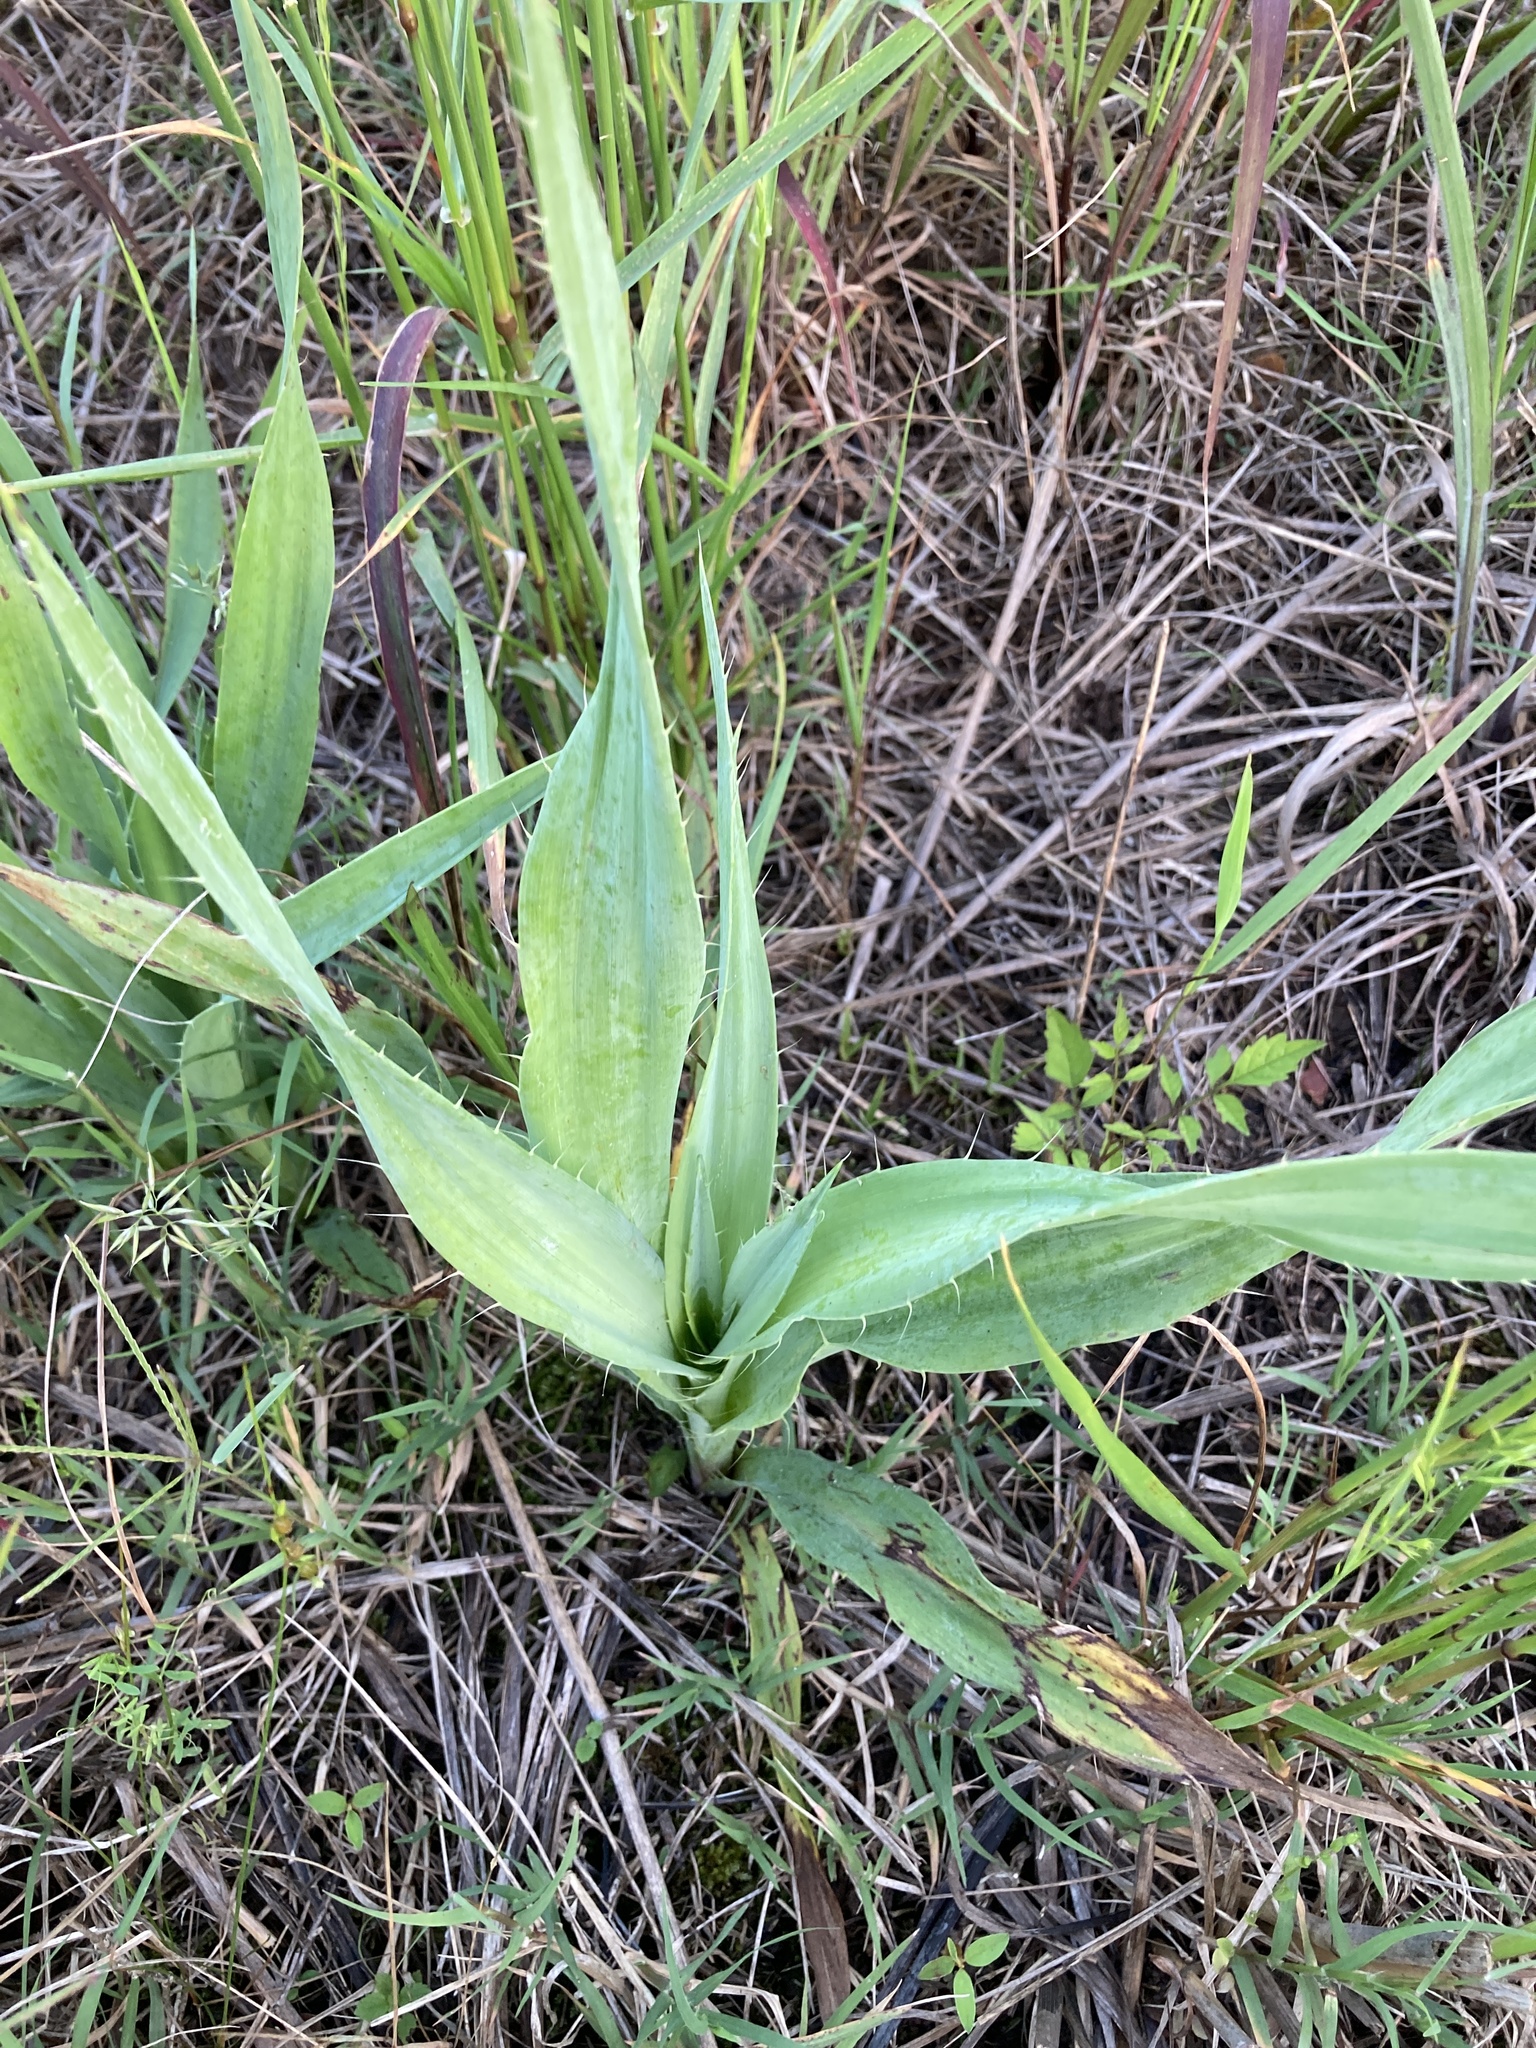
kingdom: Plantae
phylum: Tracheophyta
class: Magnoliopsida
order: Apiales
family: Apiaceae
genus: Eryngium
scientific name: Eryngium yuccifolium
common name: Button eryngo
